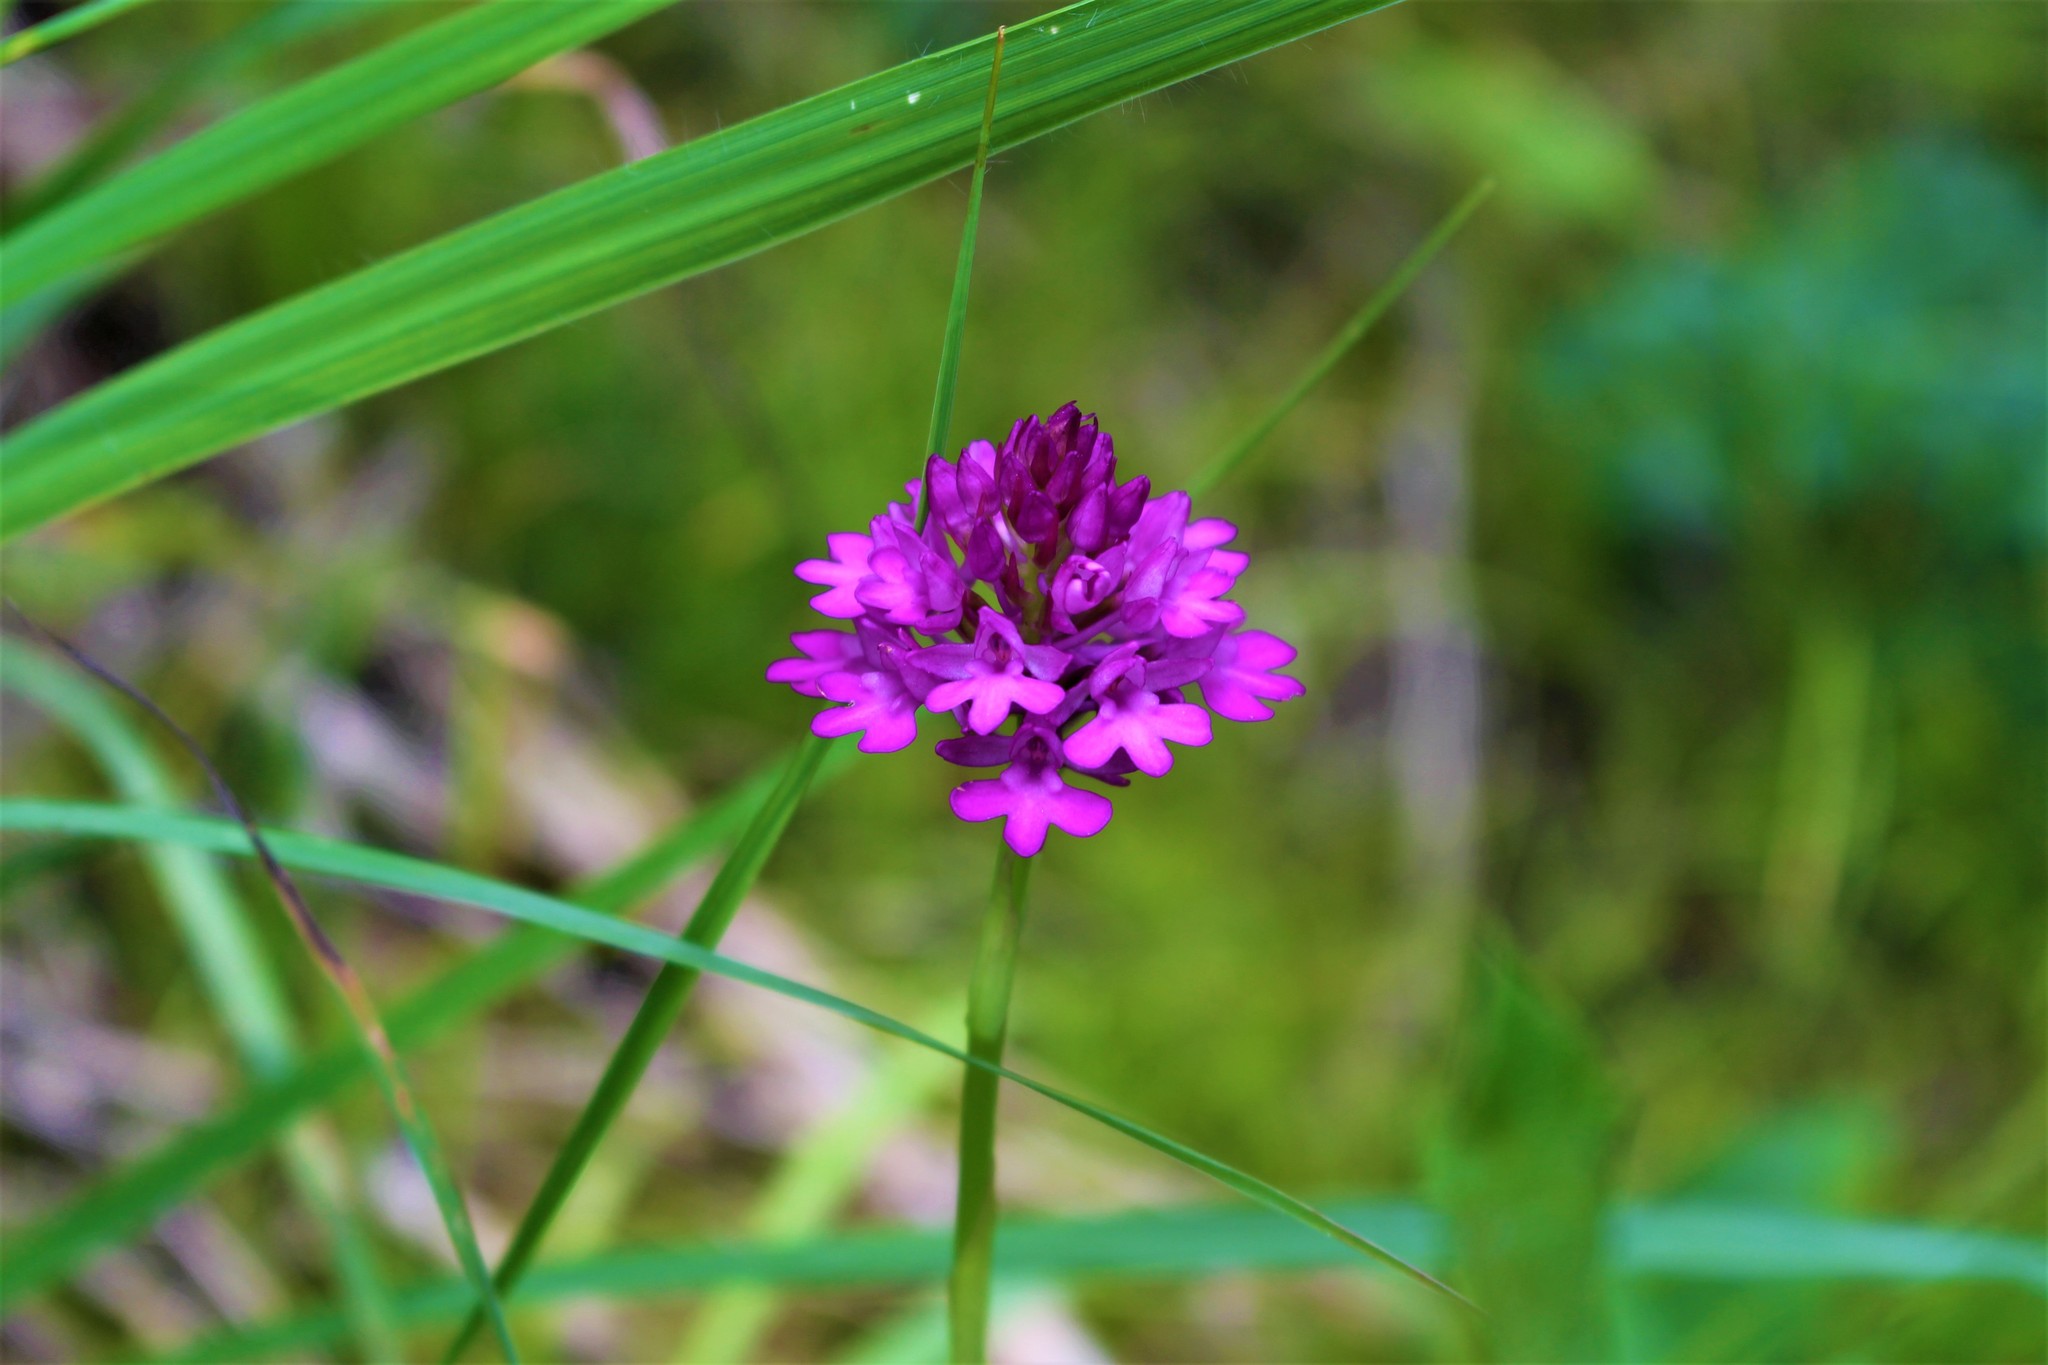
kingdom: Plantae
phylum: Tracheophyta
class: Liliopsida
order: Asparagales
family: Orchidaceae
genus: Anacamptis
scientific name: Anacamptis pyramidalis
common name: Pyramidal orchid
